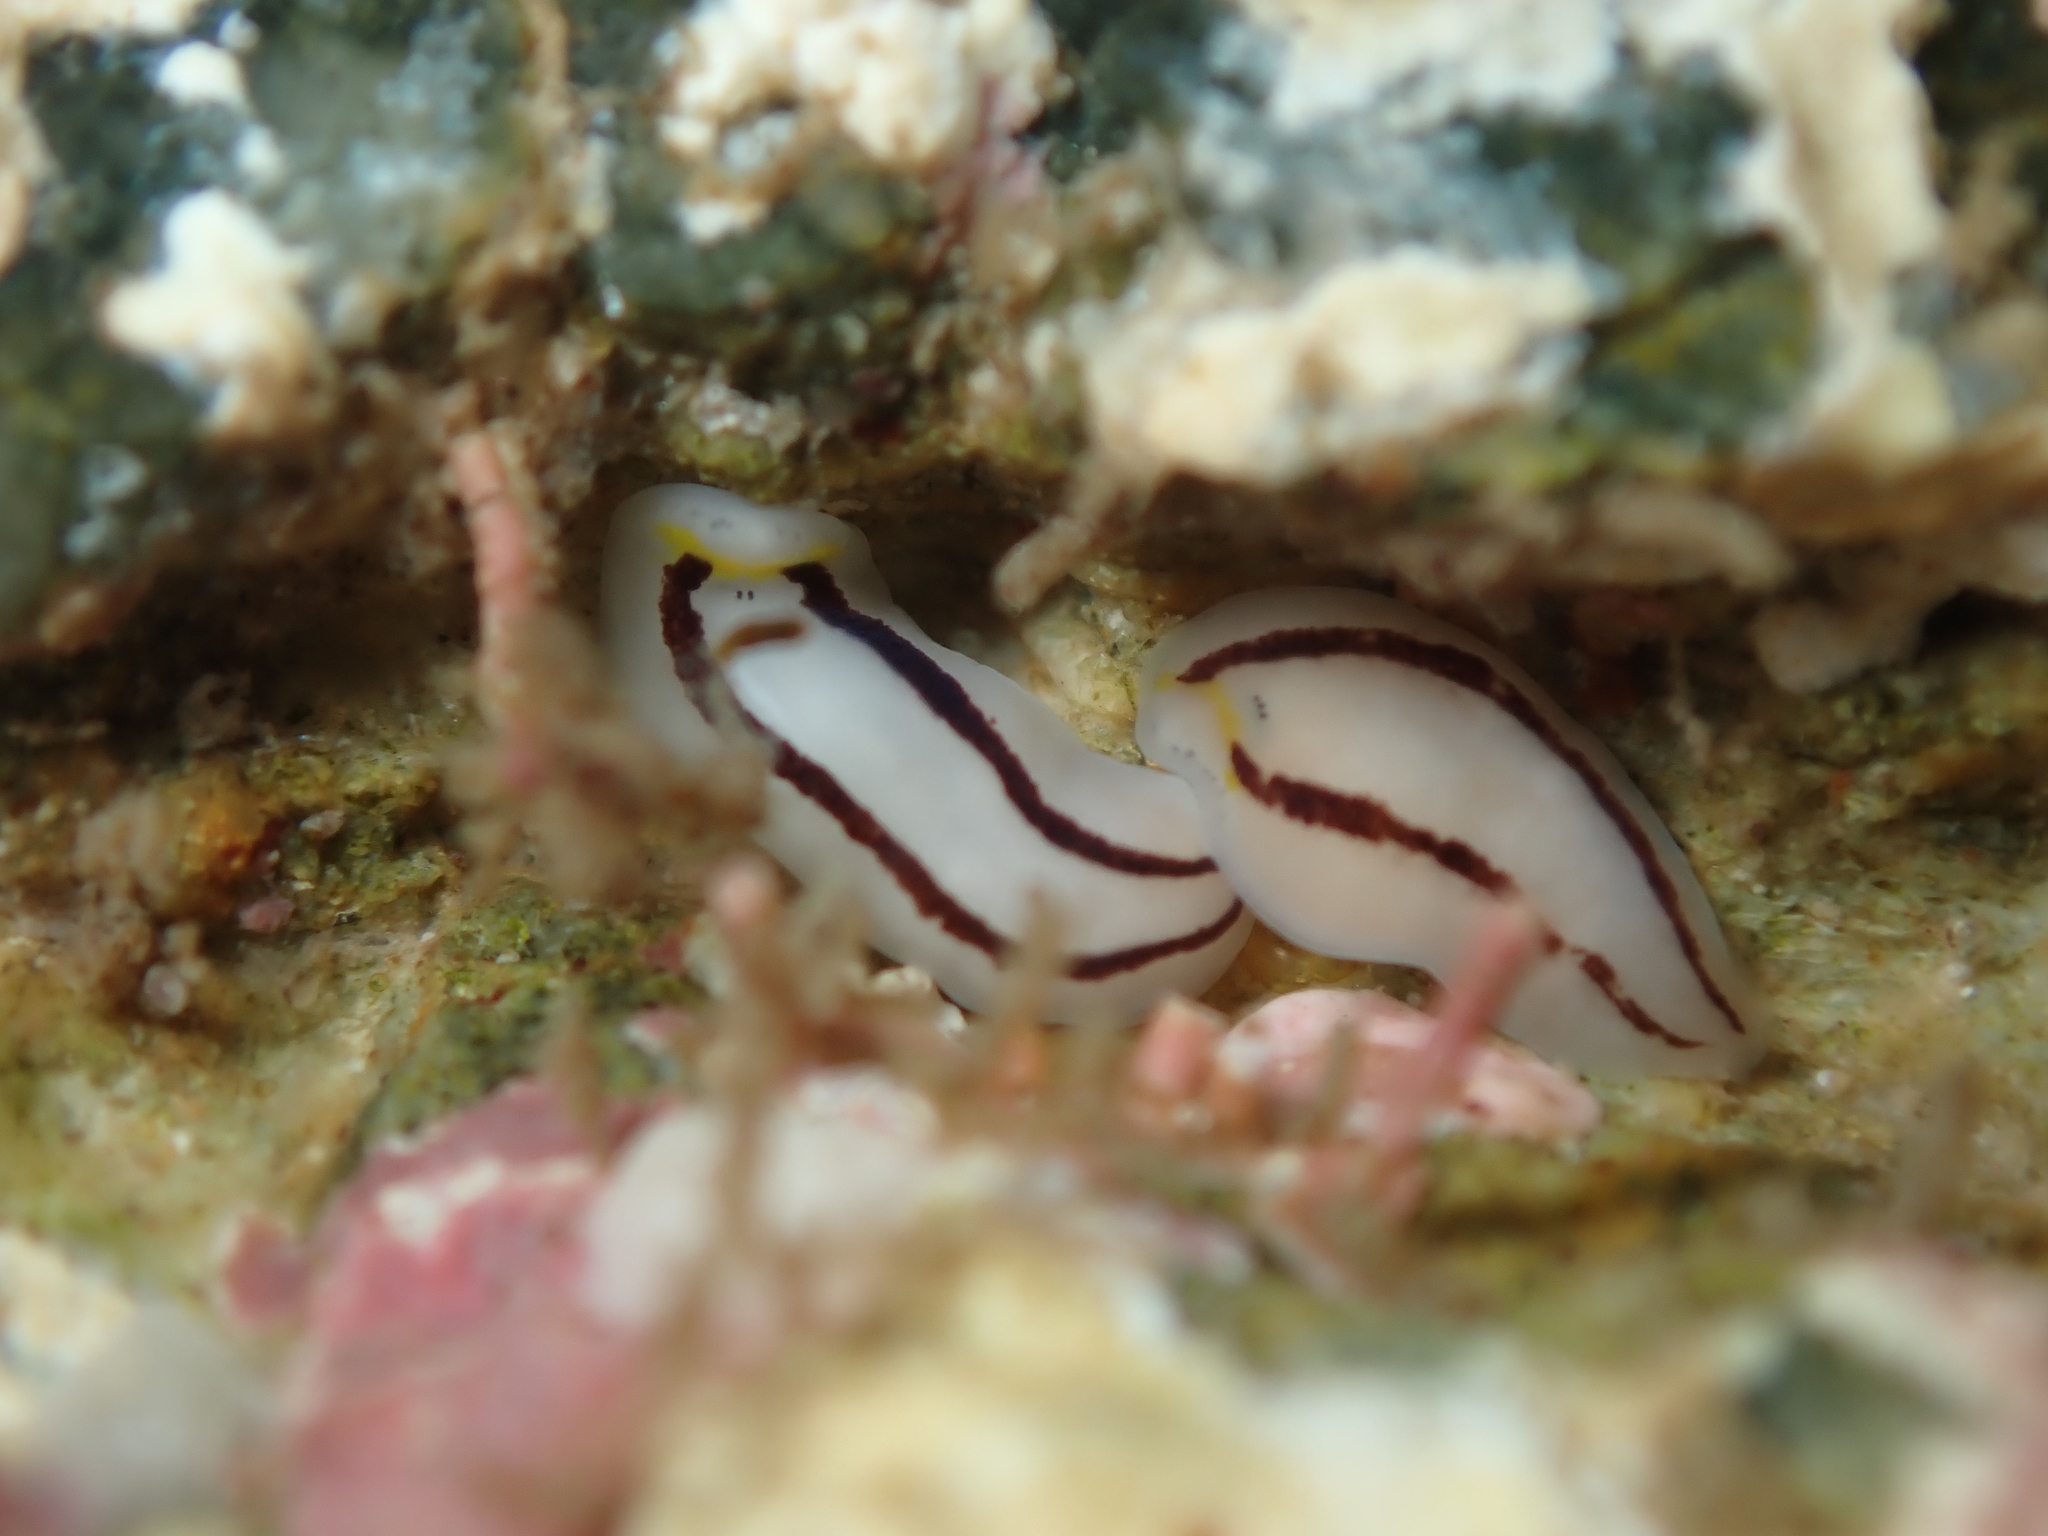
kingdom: Animalia
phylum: Platyhelminthes
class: Turbellaria
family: Chromoplanidae
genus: Chromoplana
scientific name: Chromoplana sirena
